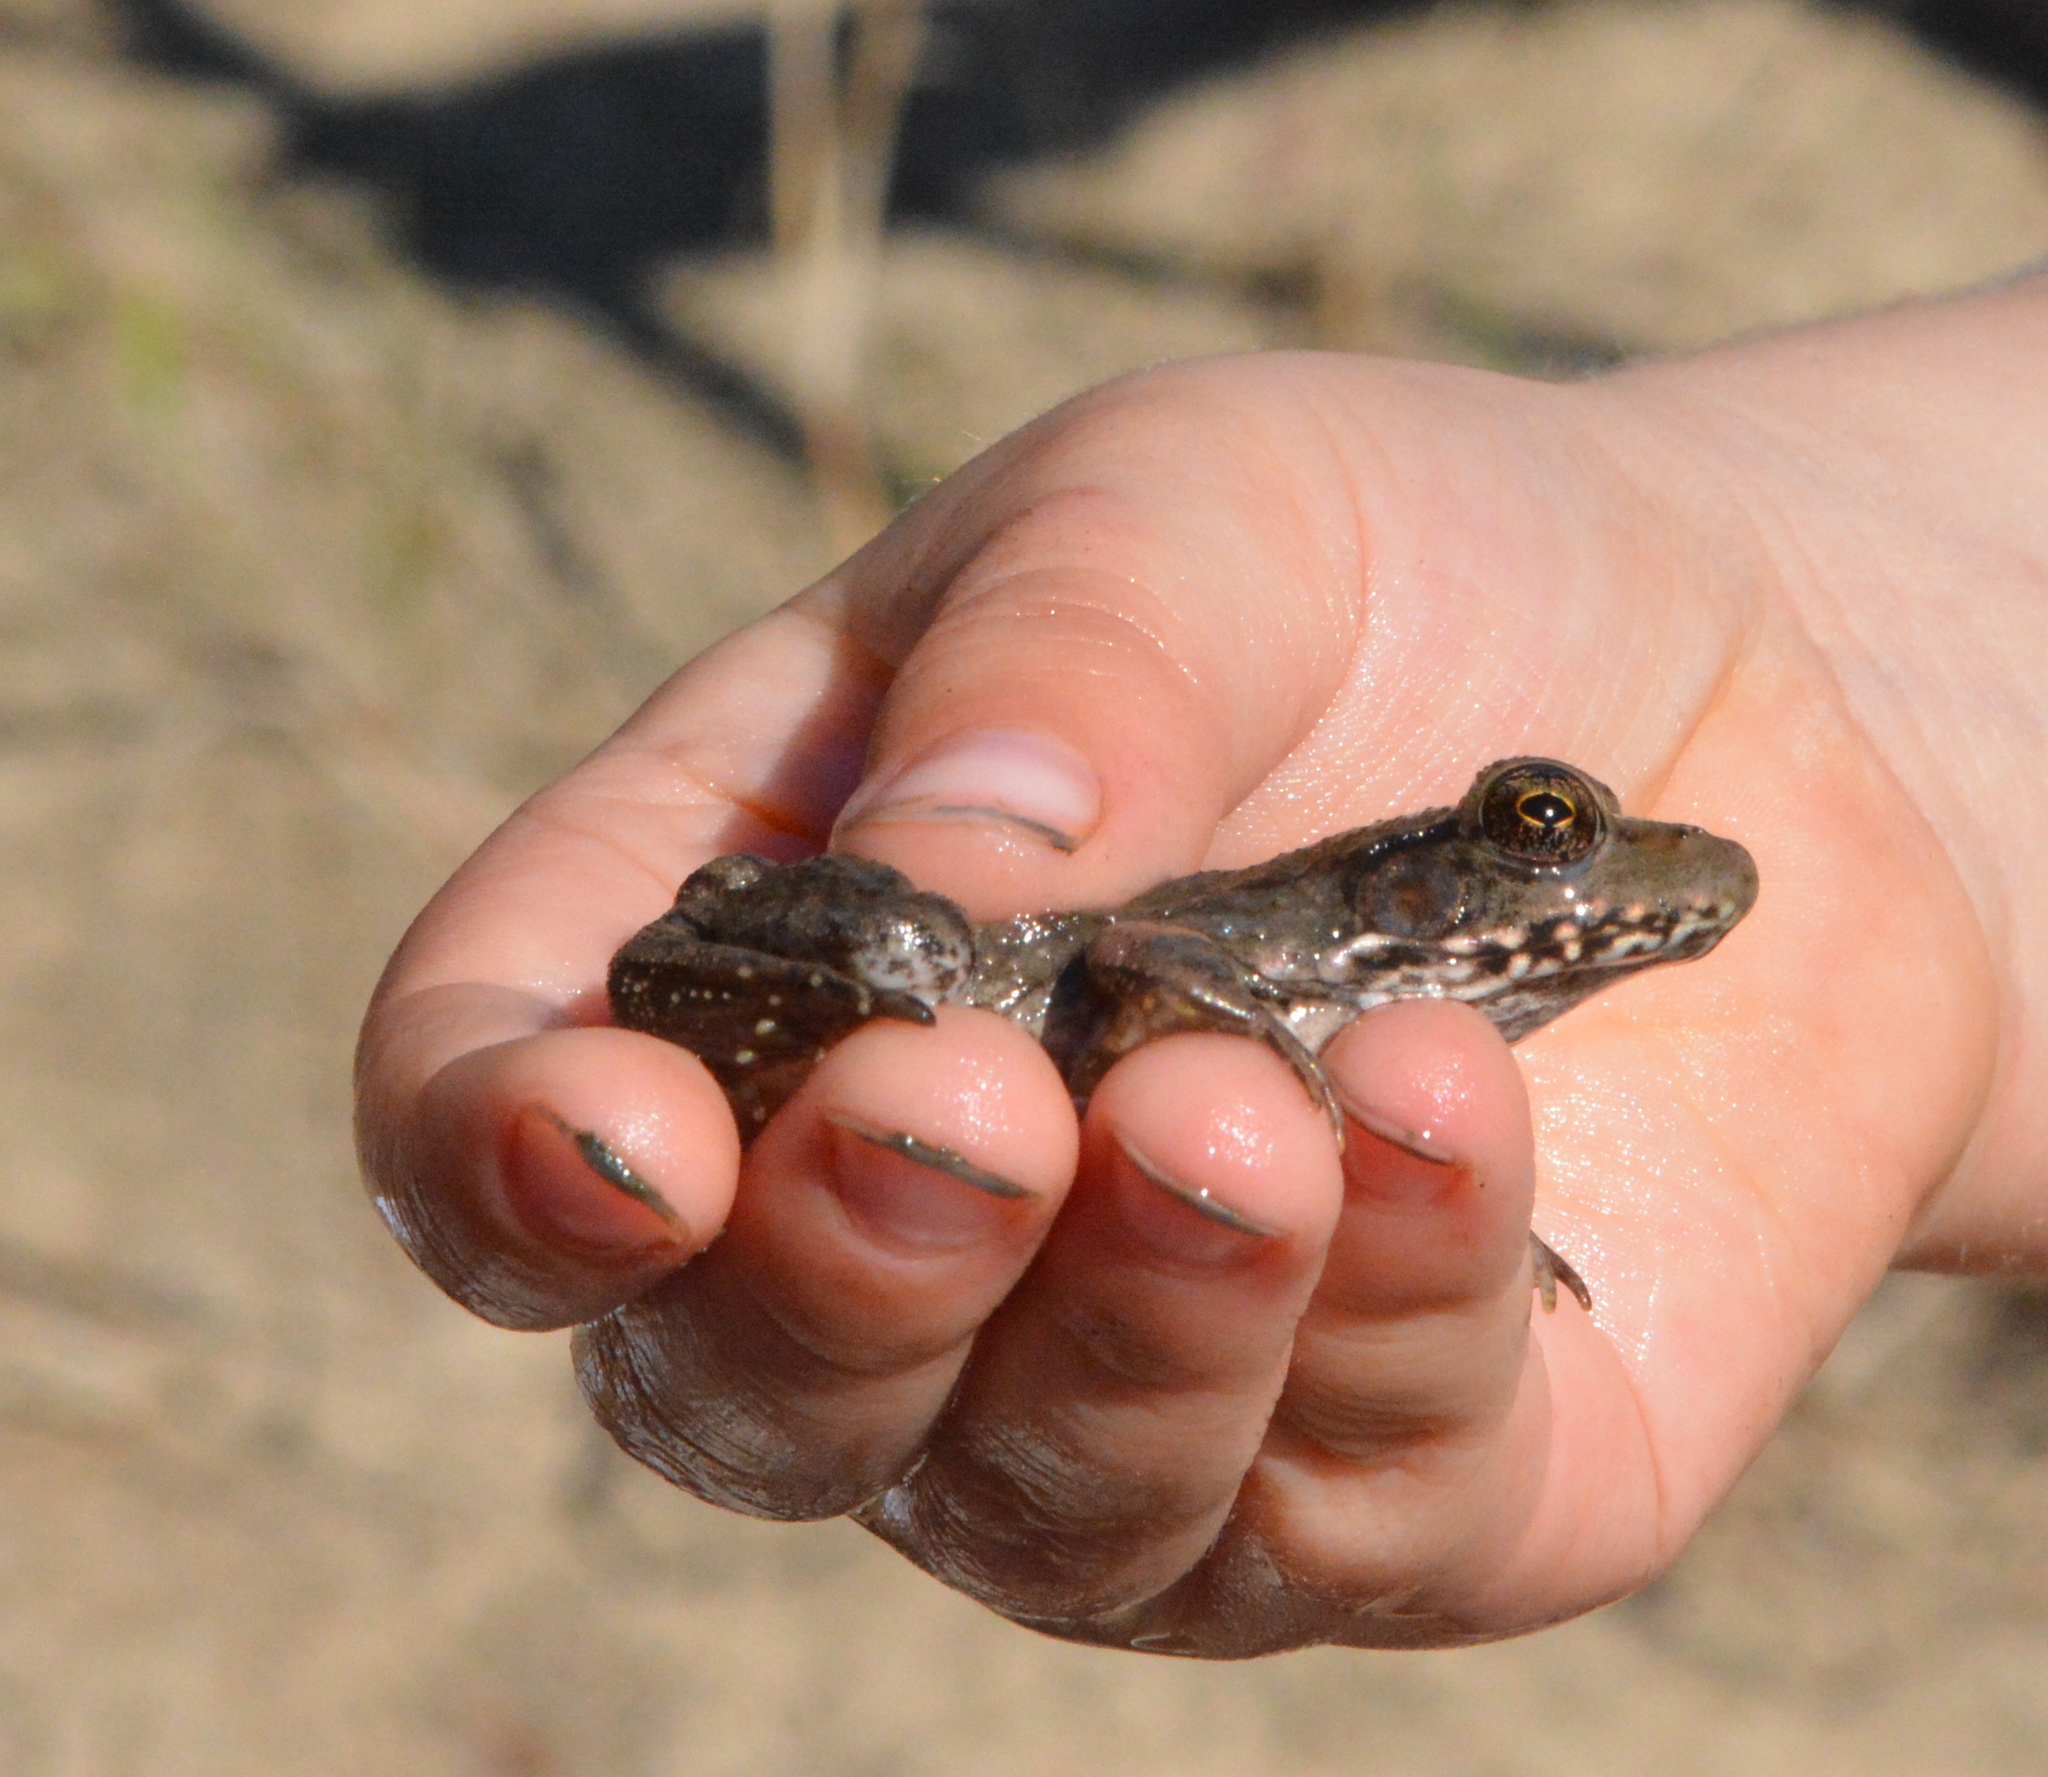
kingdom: Animalia
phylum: Chordata
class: Amphibia
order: Anura
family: Ranidae
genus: Lithobates
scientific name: Lithobates clamitans
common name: Green frog
